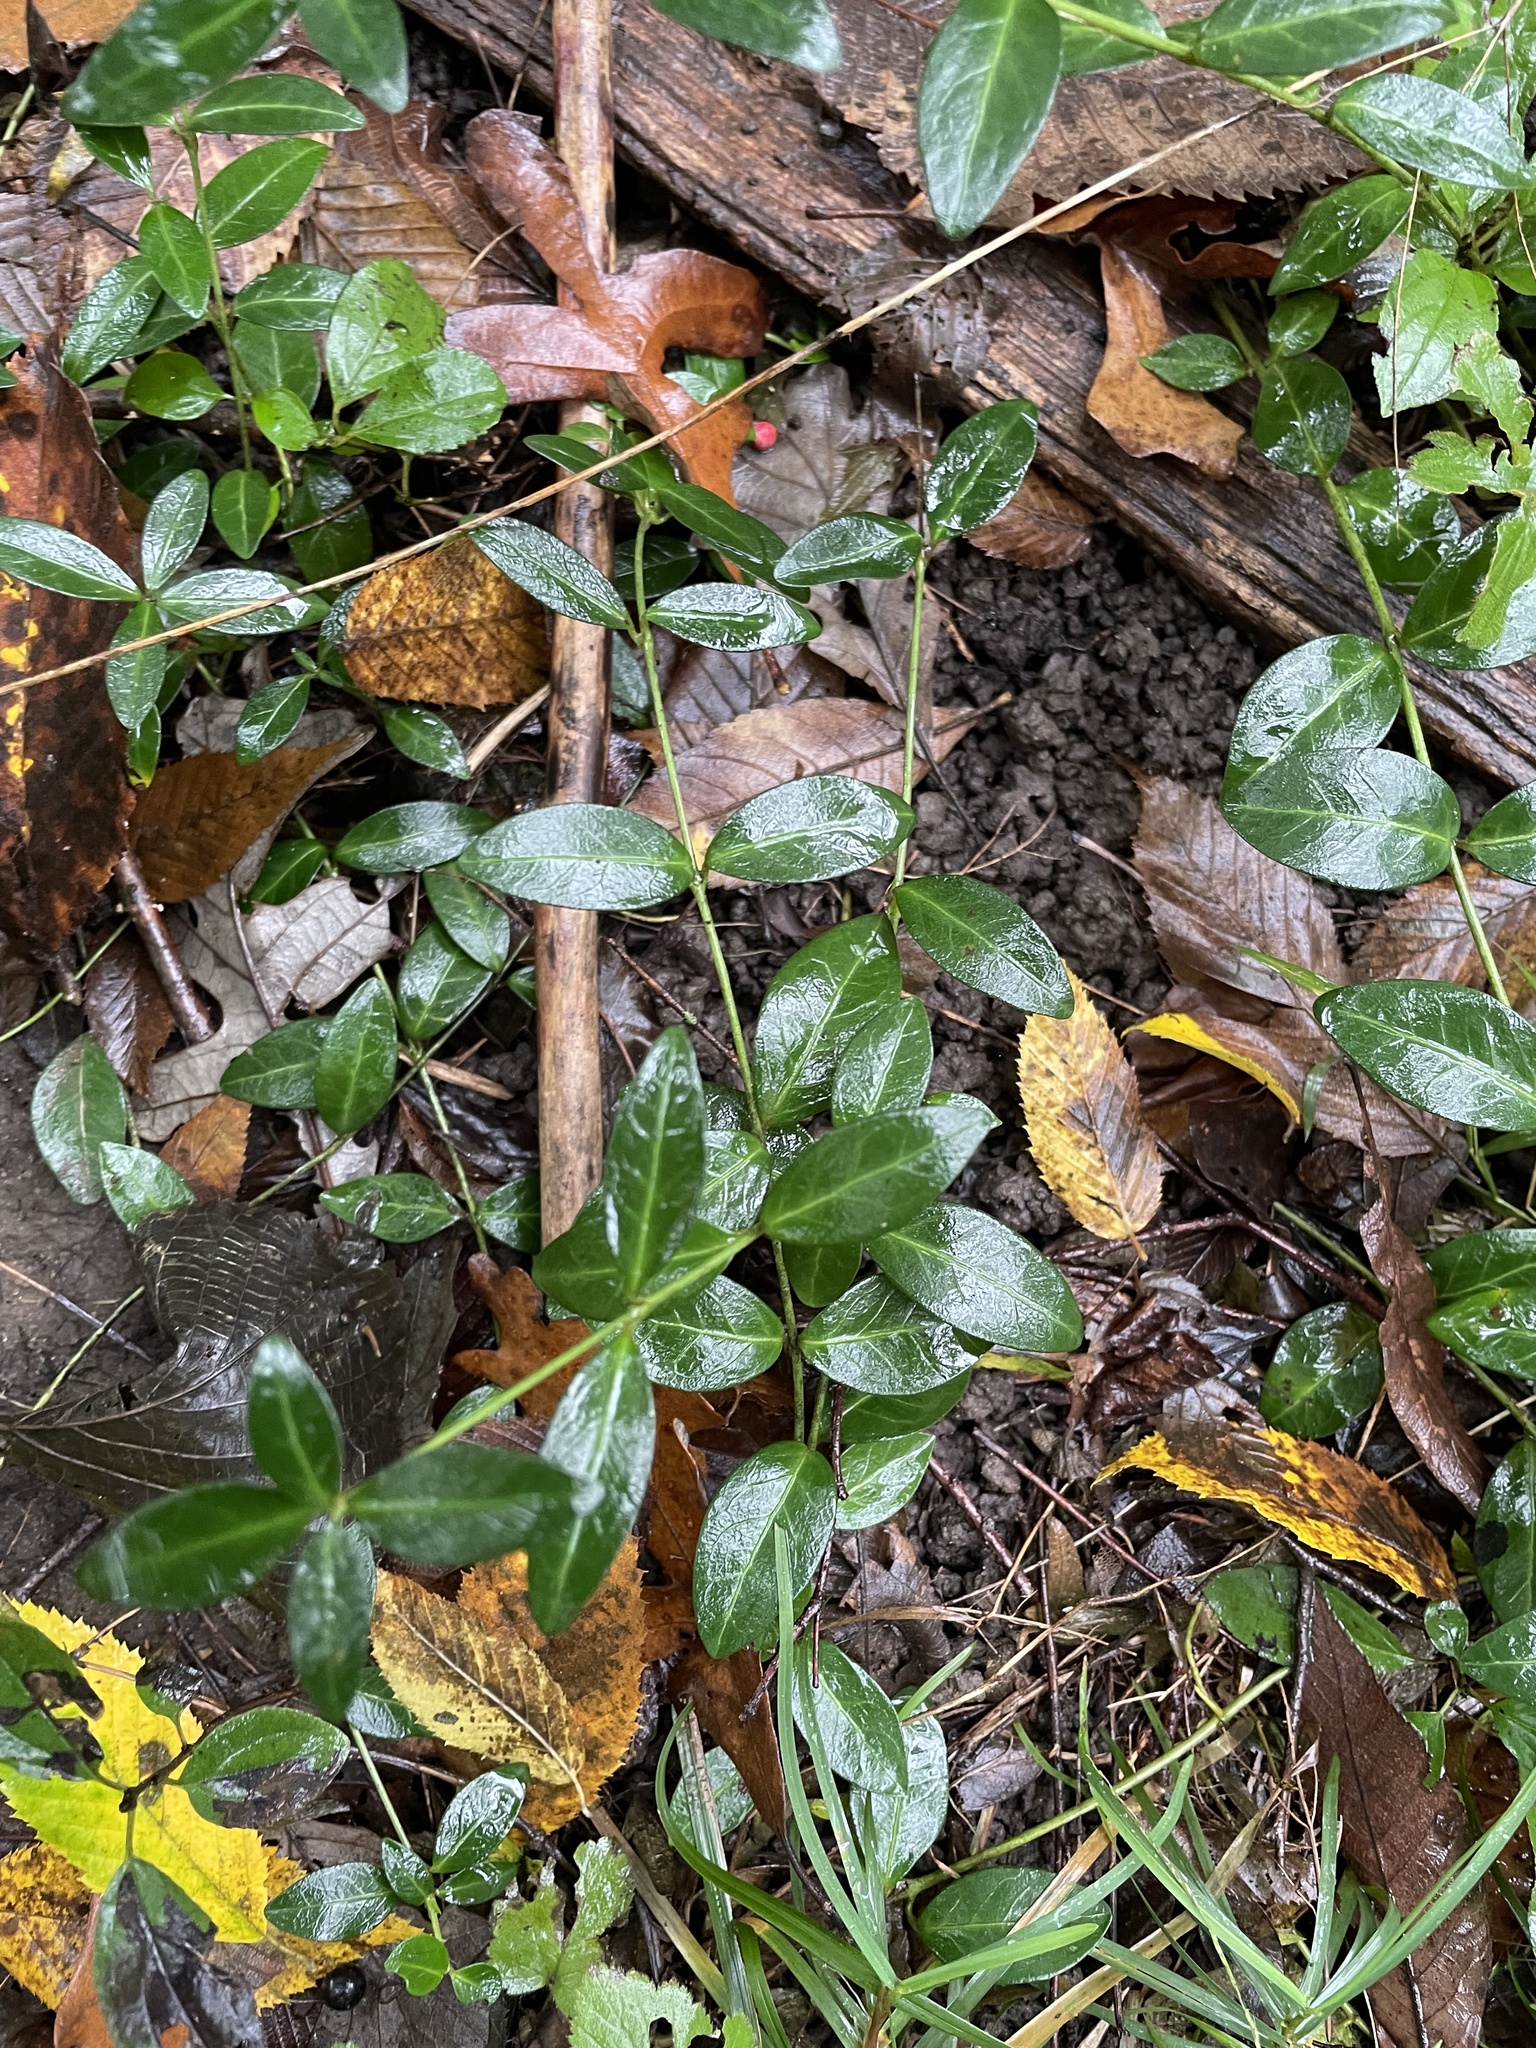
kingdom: Plantae
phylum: Tracheophyta
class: Magnoliopsida
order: Gentianales
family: Apocynaceae
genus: Vinca
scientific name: Vinca minor
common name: Lesser periwinkle
